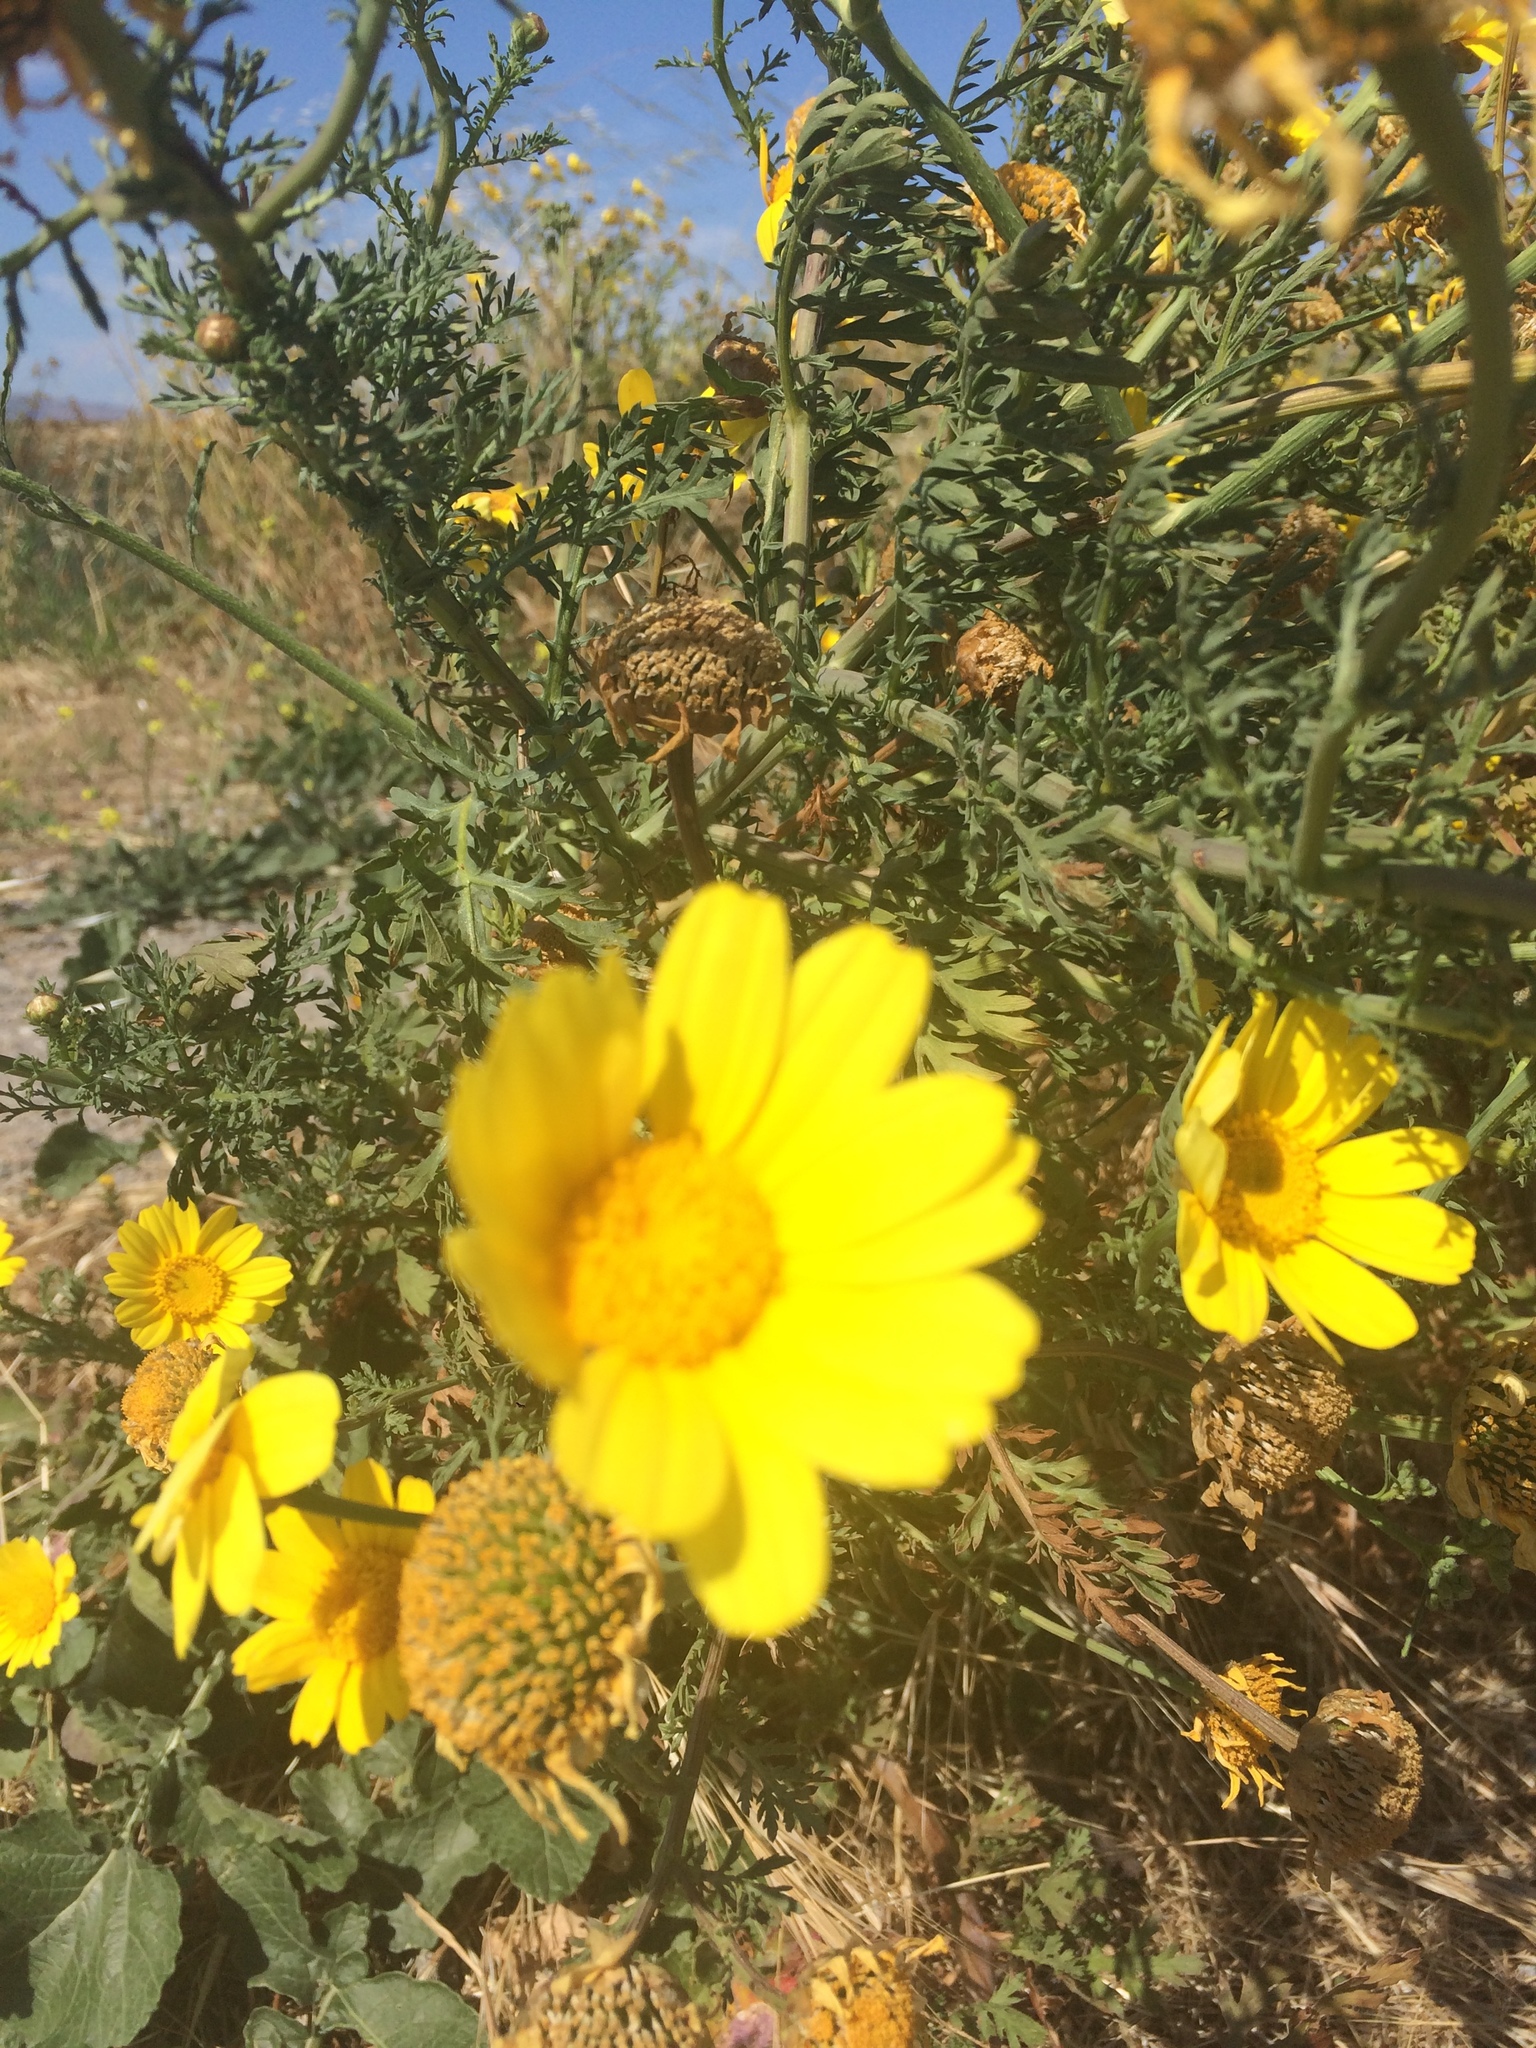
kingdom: Plantae
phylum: Tracheophyta
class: Magnoliopsida
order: Asterales
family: Asteraceae
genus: Glebionis
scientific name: Glebionis coronaria
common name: Crowndaisy
